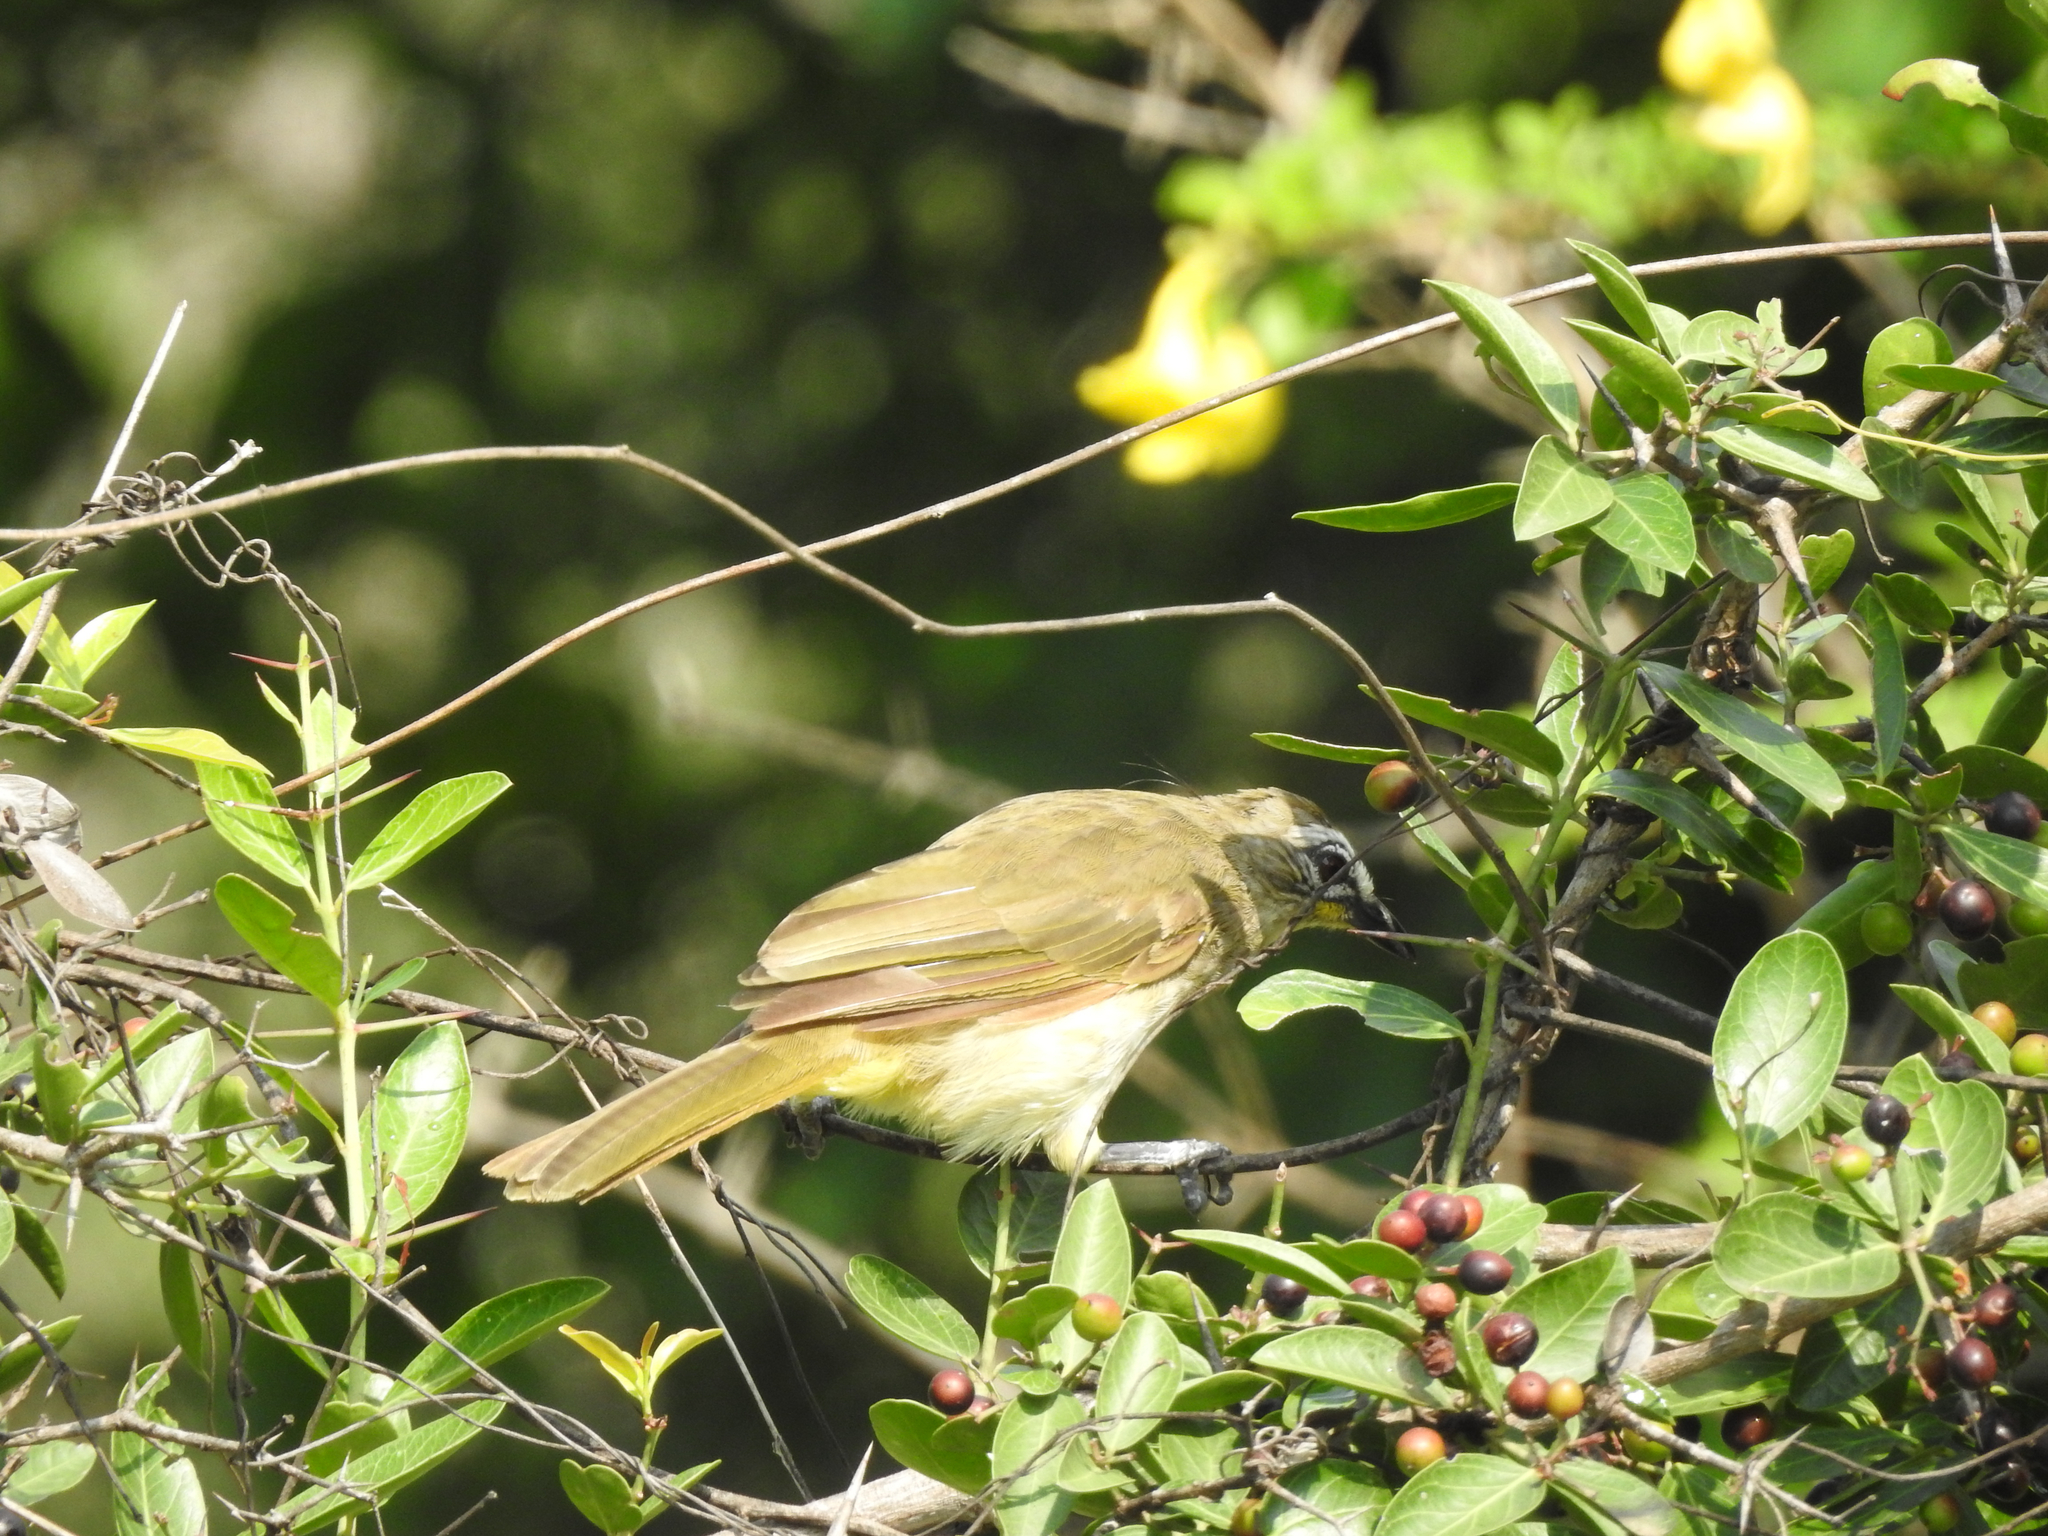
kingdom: Animalia
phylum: Chordata
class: Aves
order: Passeriformes
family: Pycnonotidae
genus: Pycnonotus
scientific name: Pycnonotus luteolus
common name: White-browed bulbul
